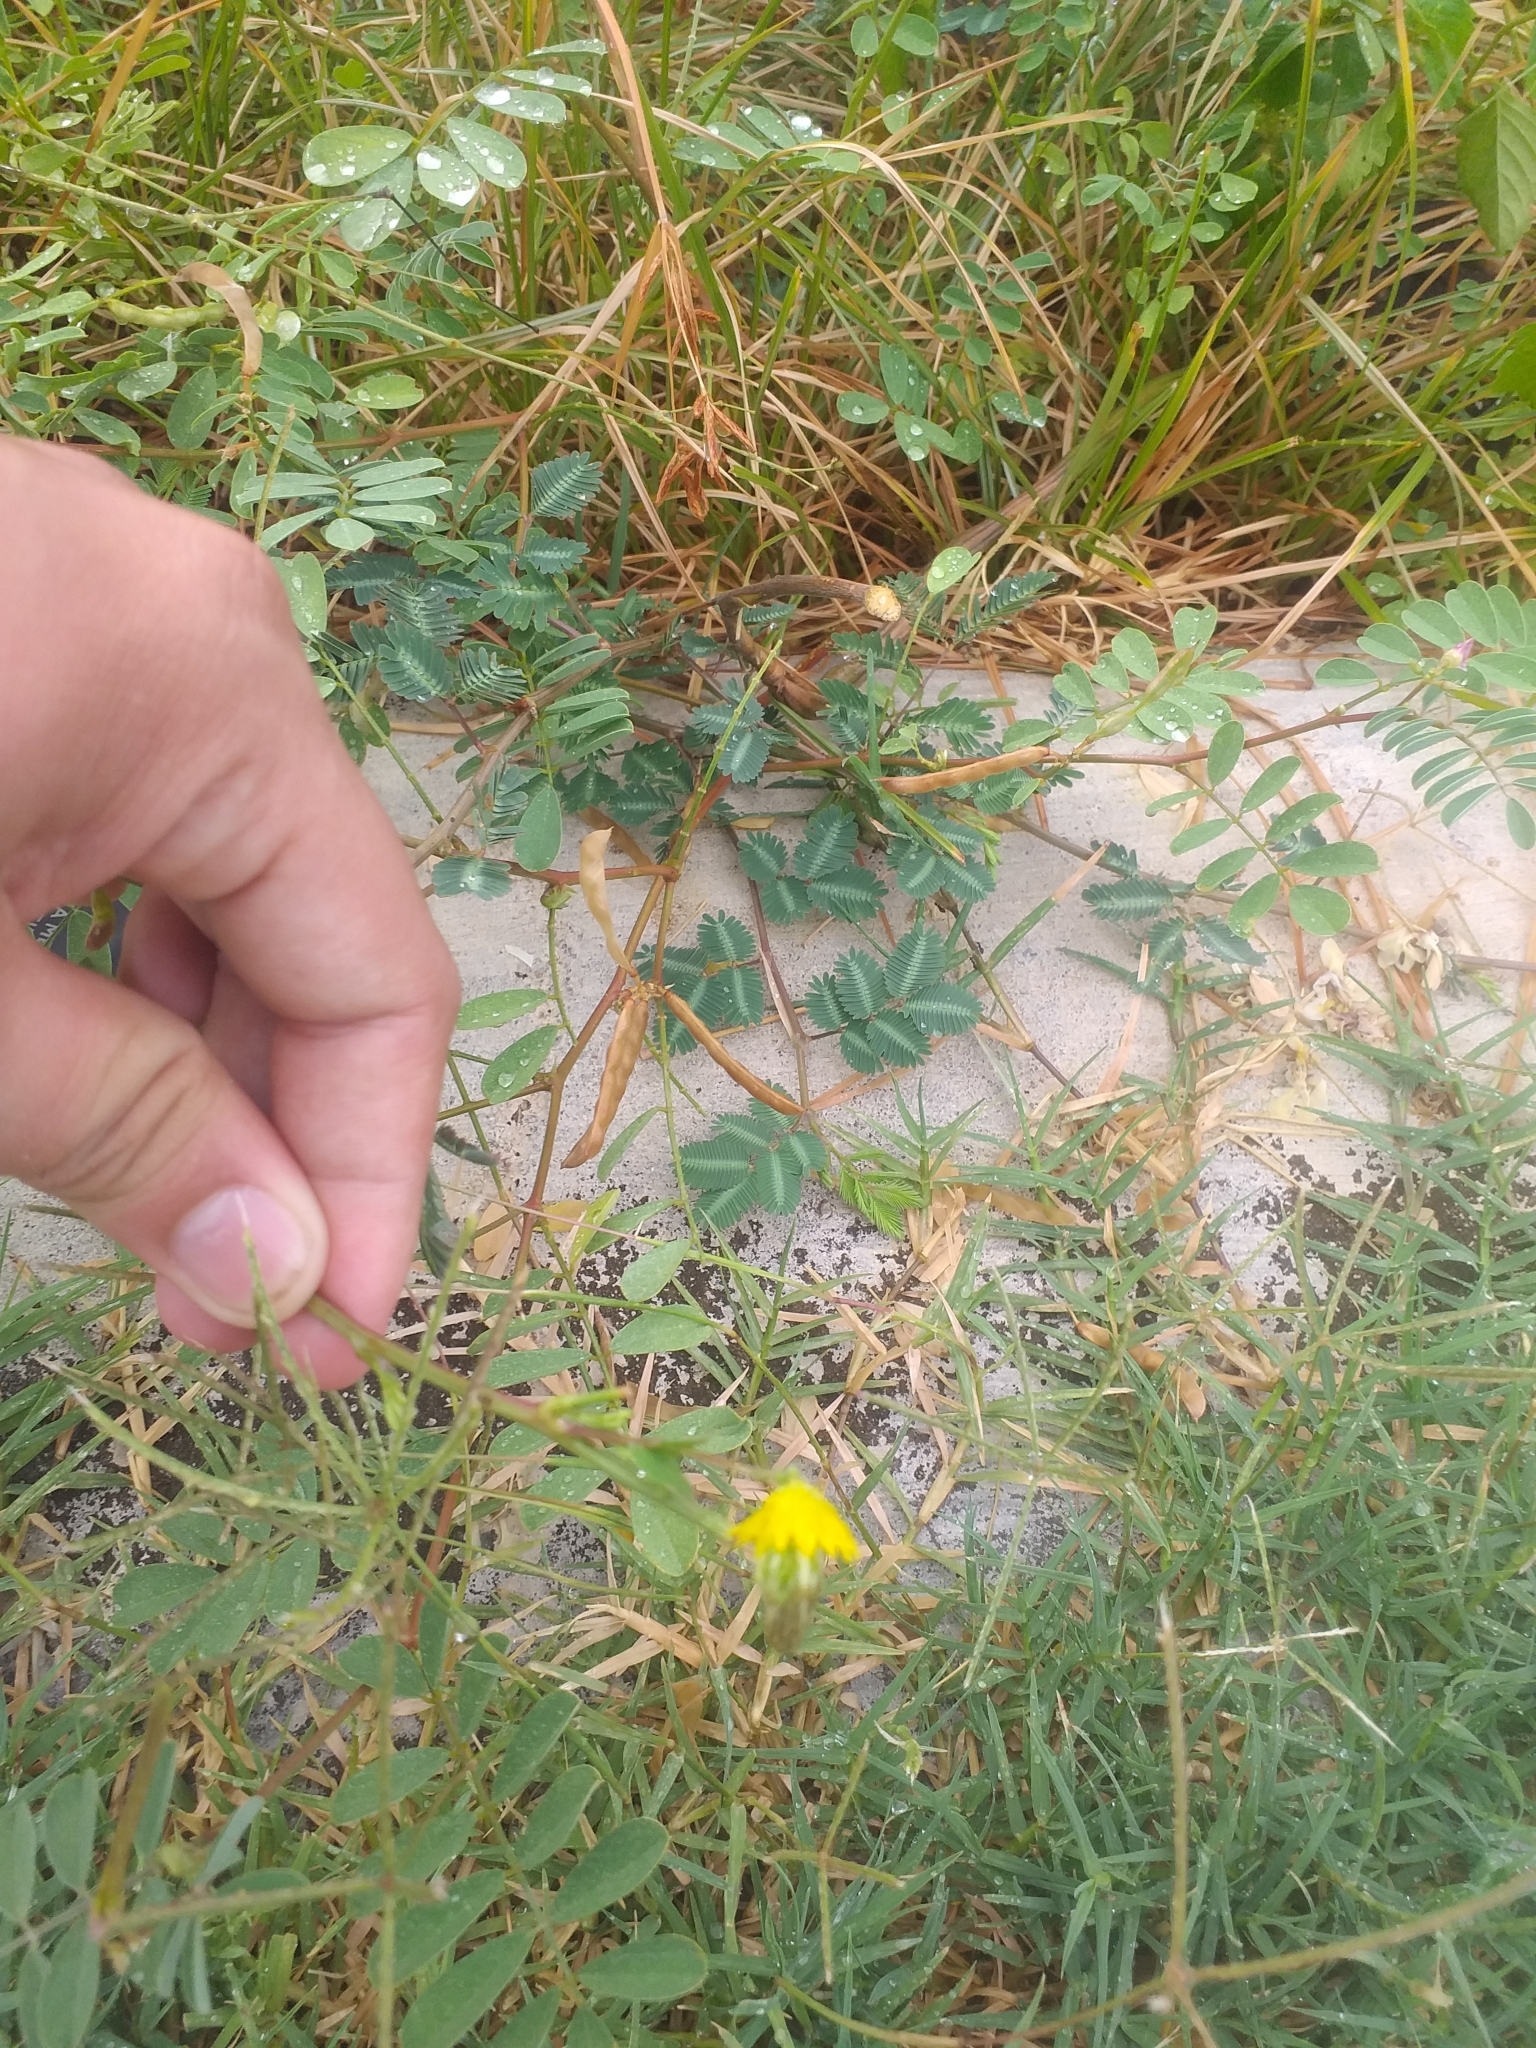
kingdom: Plantae
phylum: Tracheophyta
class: Magnoliopsida
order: Fabales
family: Fabaceae
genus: Neptunia
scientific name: Neptunia plena
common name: Dead and awake
